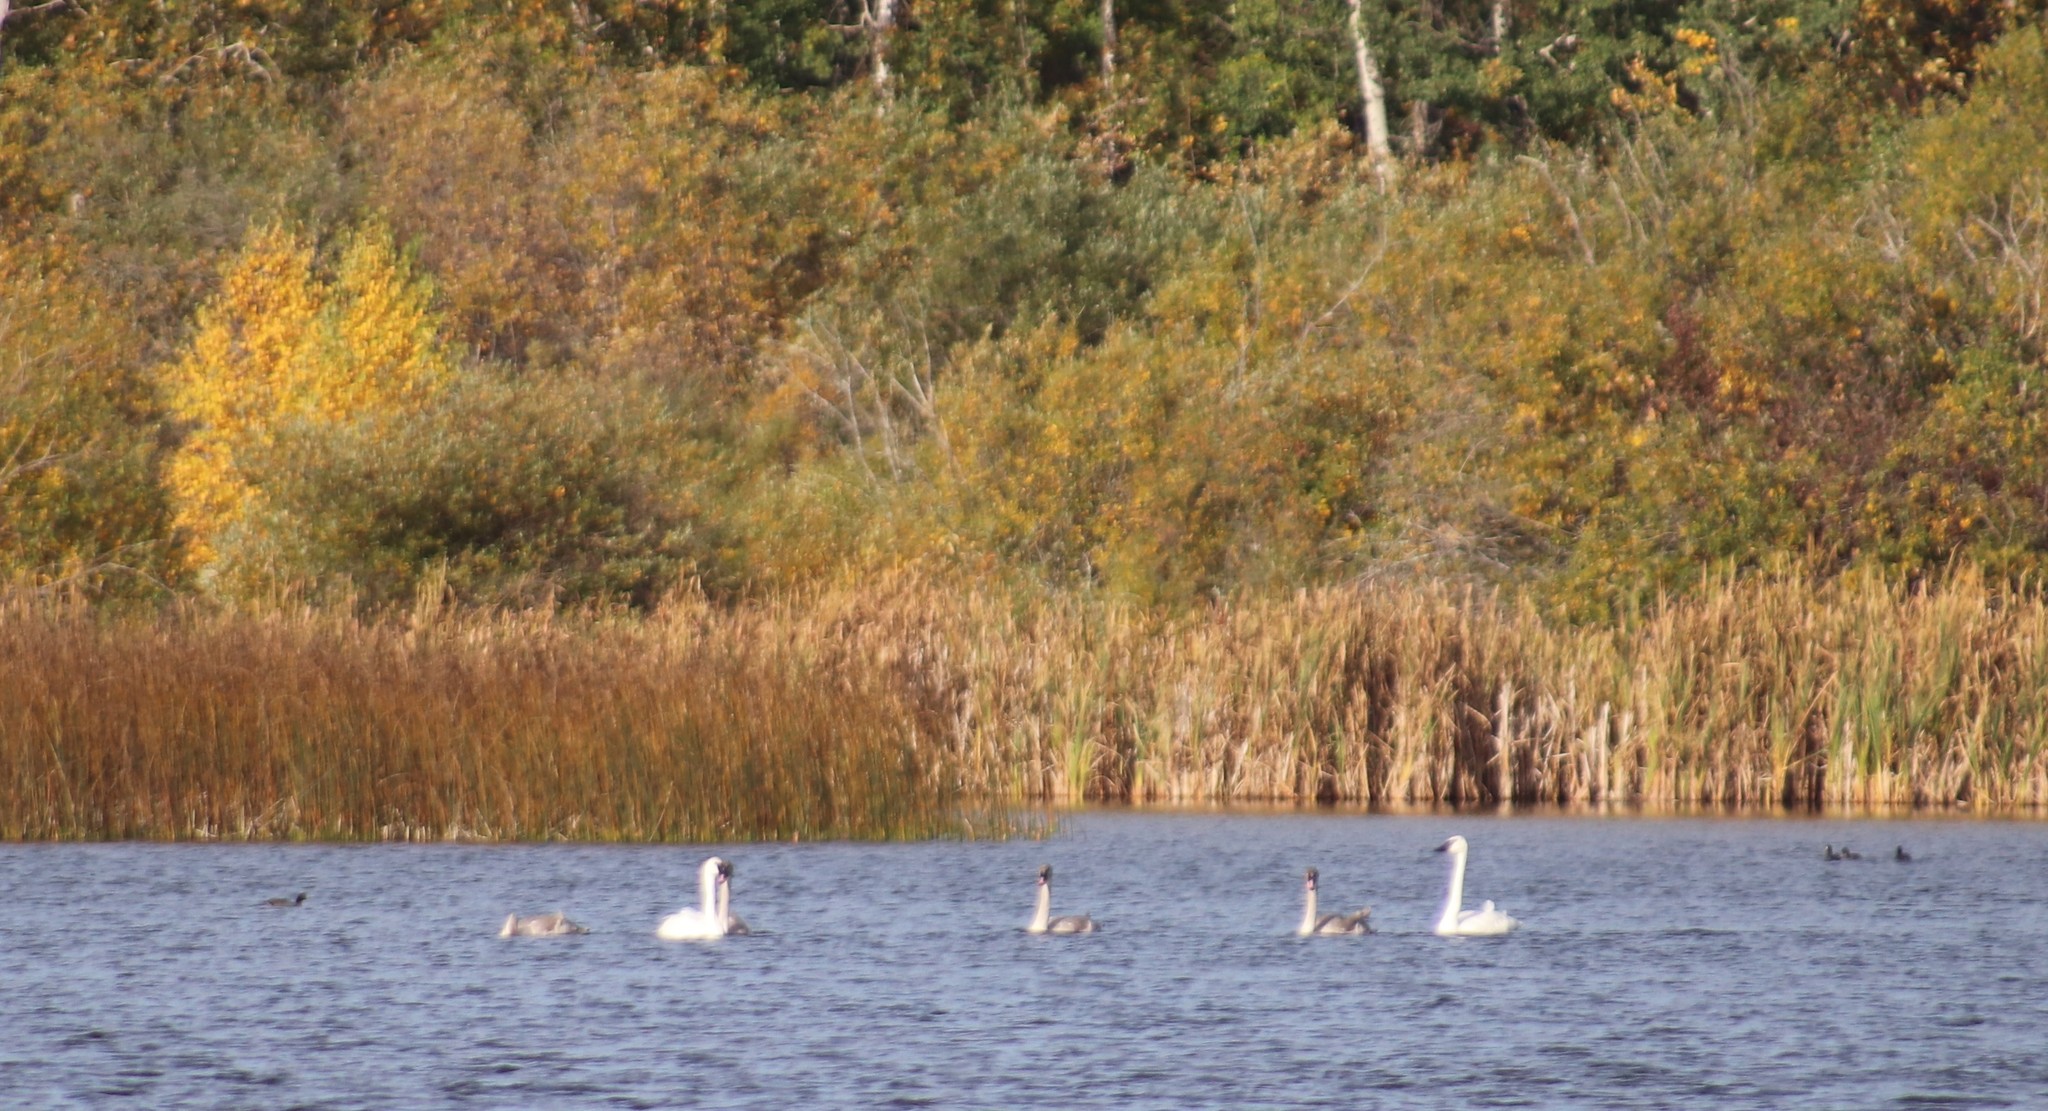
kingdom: Animalia
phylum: Chordata
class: Aves
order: Anseriformes
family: Anatidae
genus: Cygnus
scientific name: Cygnus buccinator
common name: Trumpeter swan
